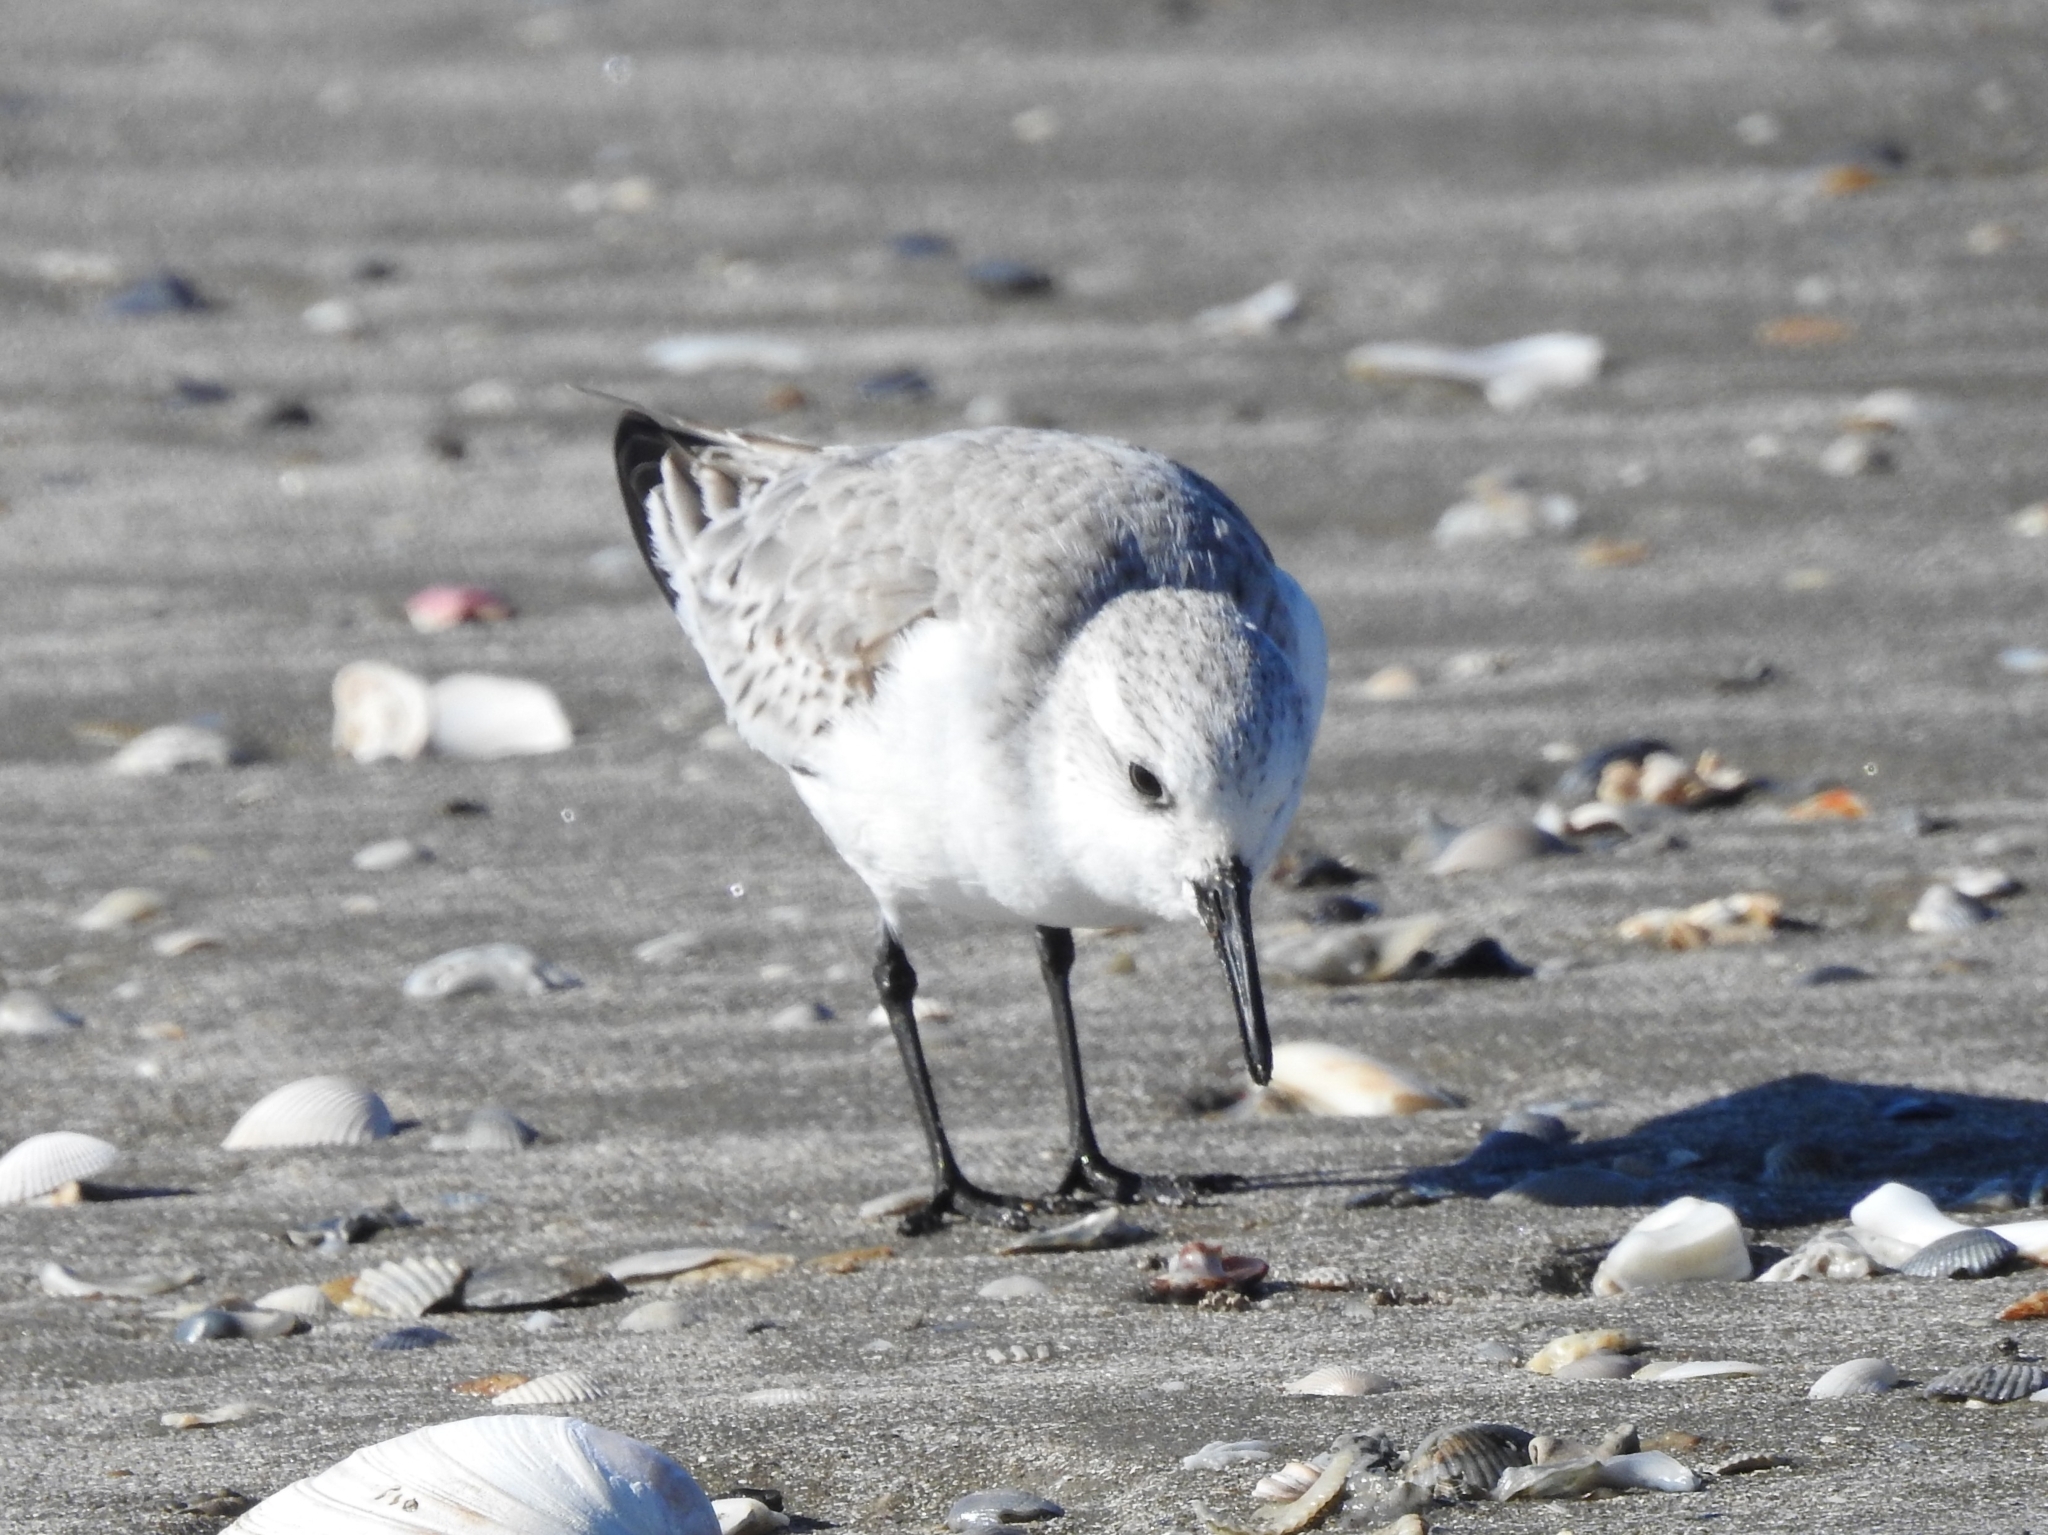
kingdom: Animalia
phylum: Chordata
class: Aves
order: Charadriiformes
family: Scolopacidae
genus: Calidris
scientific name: Calidris alba
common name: Sanderling
